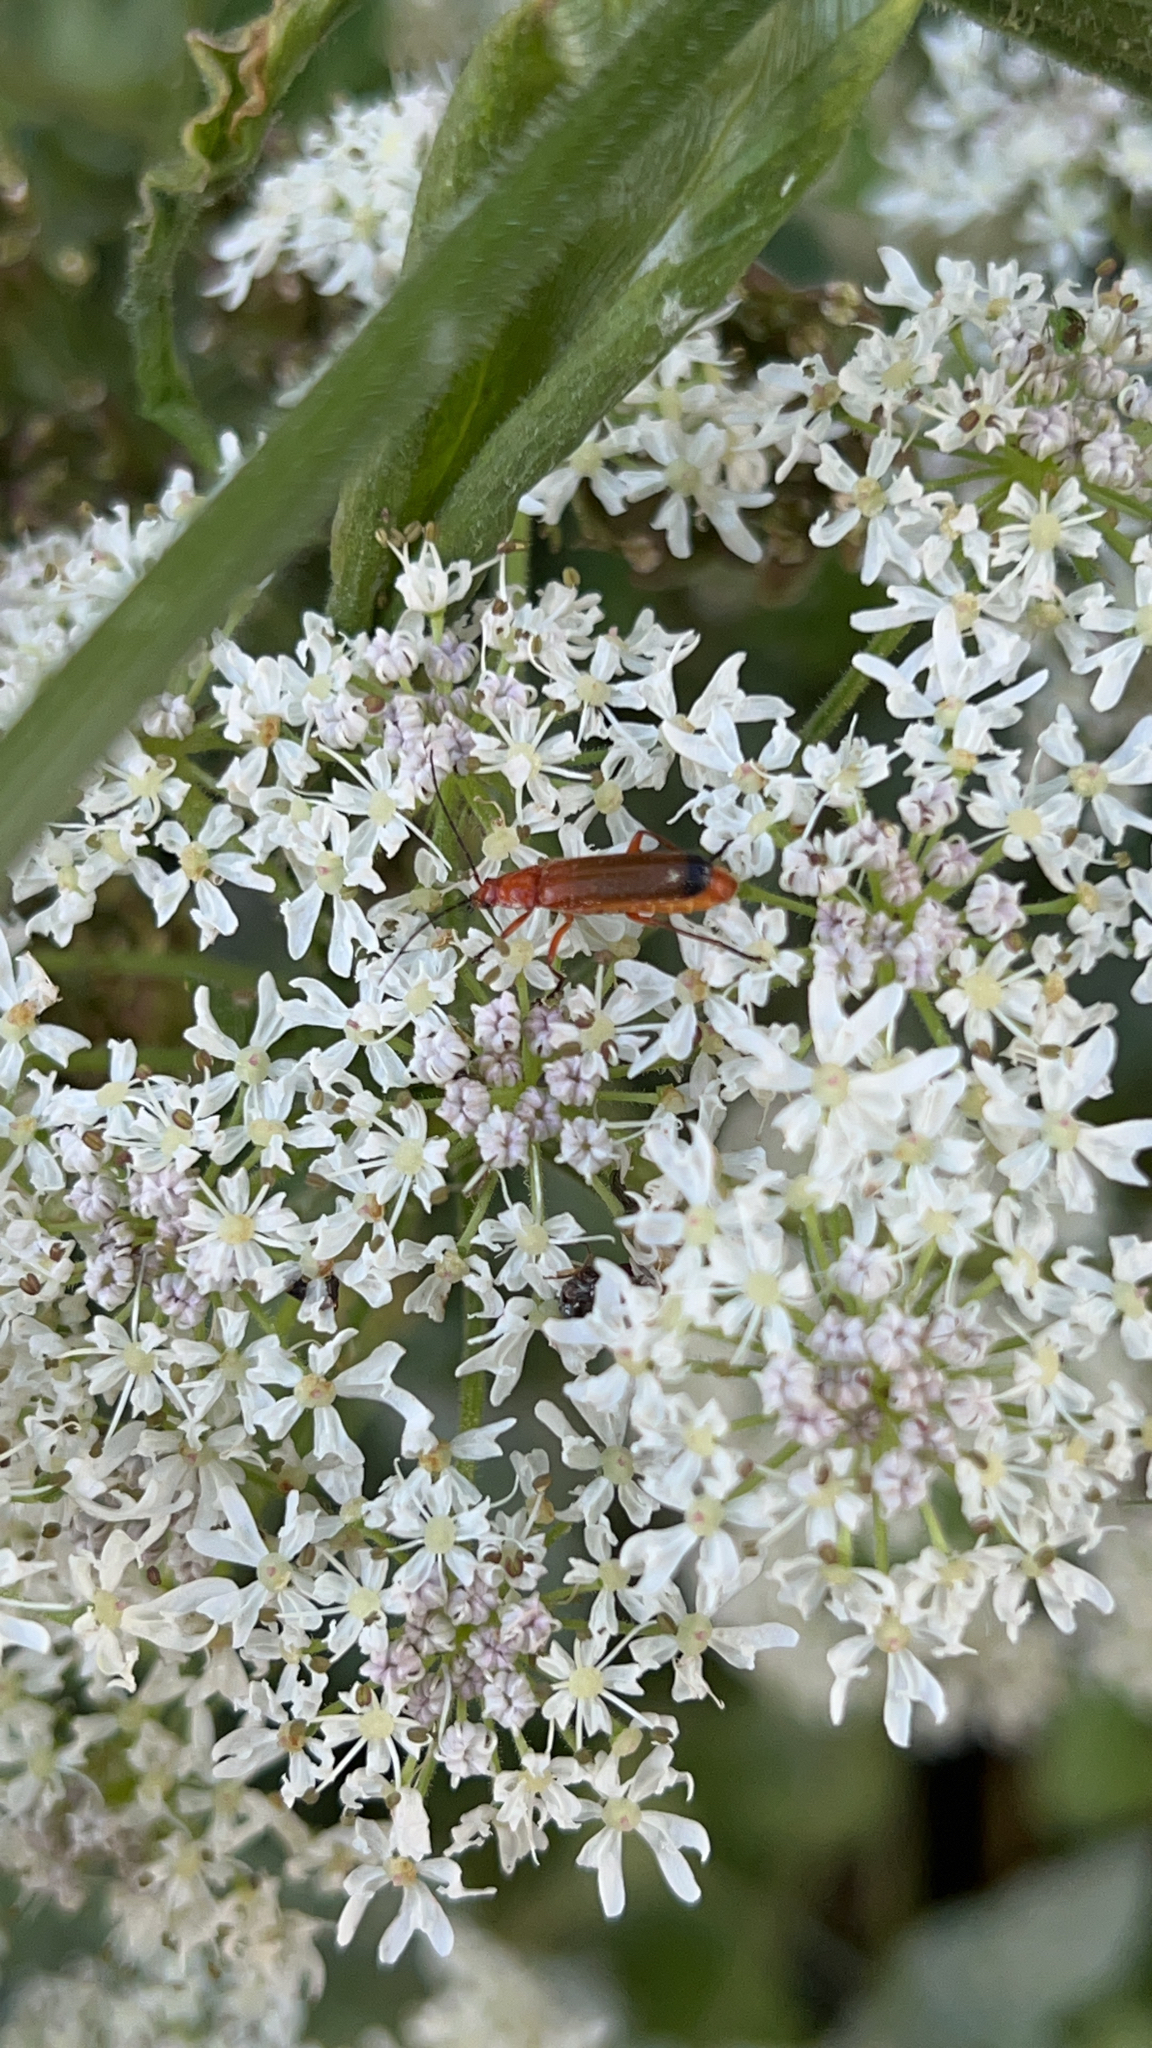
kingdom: Animalia
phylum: Arthropoda
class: Insecta
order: Coleoptera
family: Cantharidae
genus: Rhagonycha
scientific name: Rhagonycha fulva
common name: Common red soldier beetle
